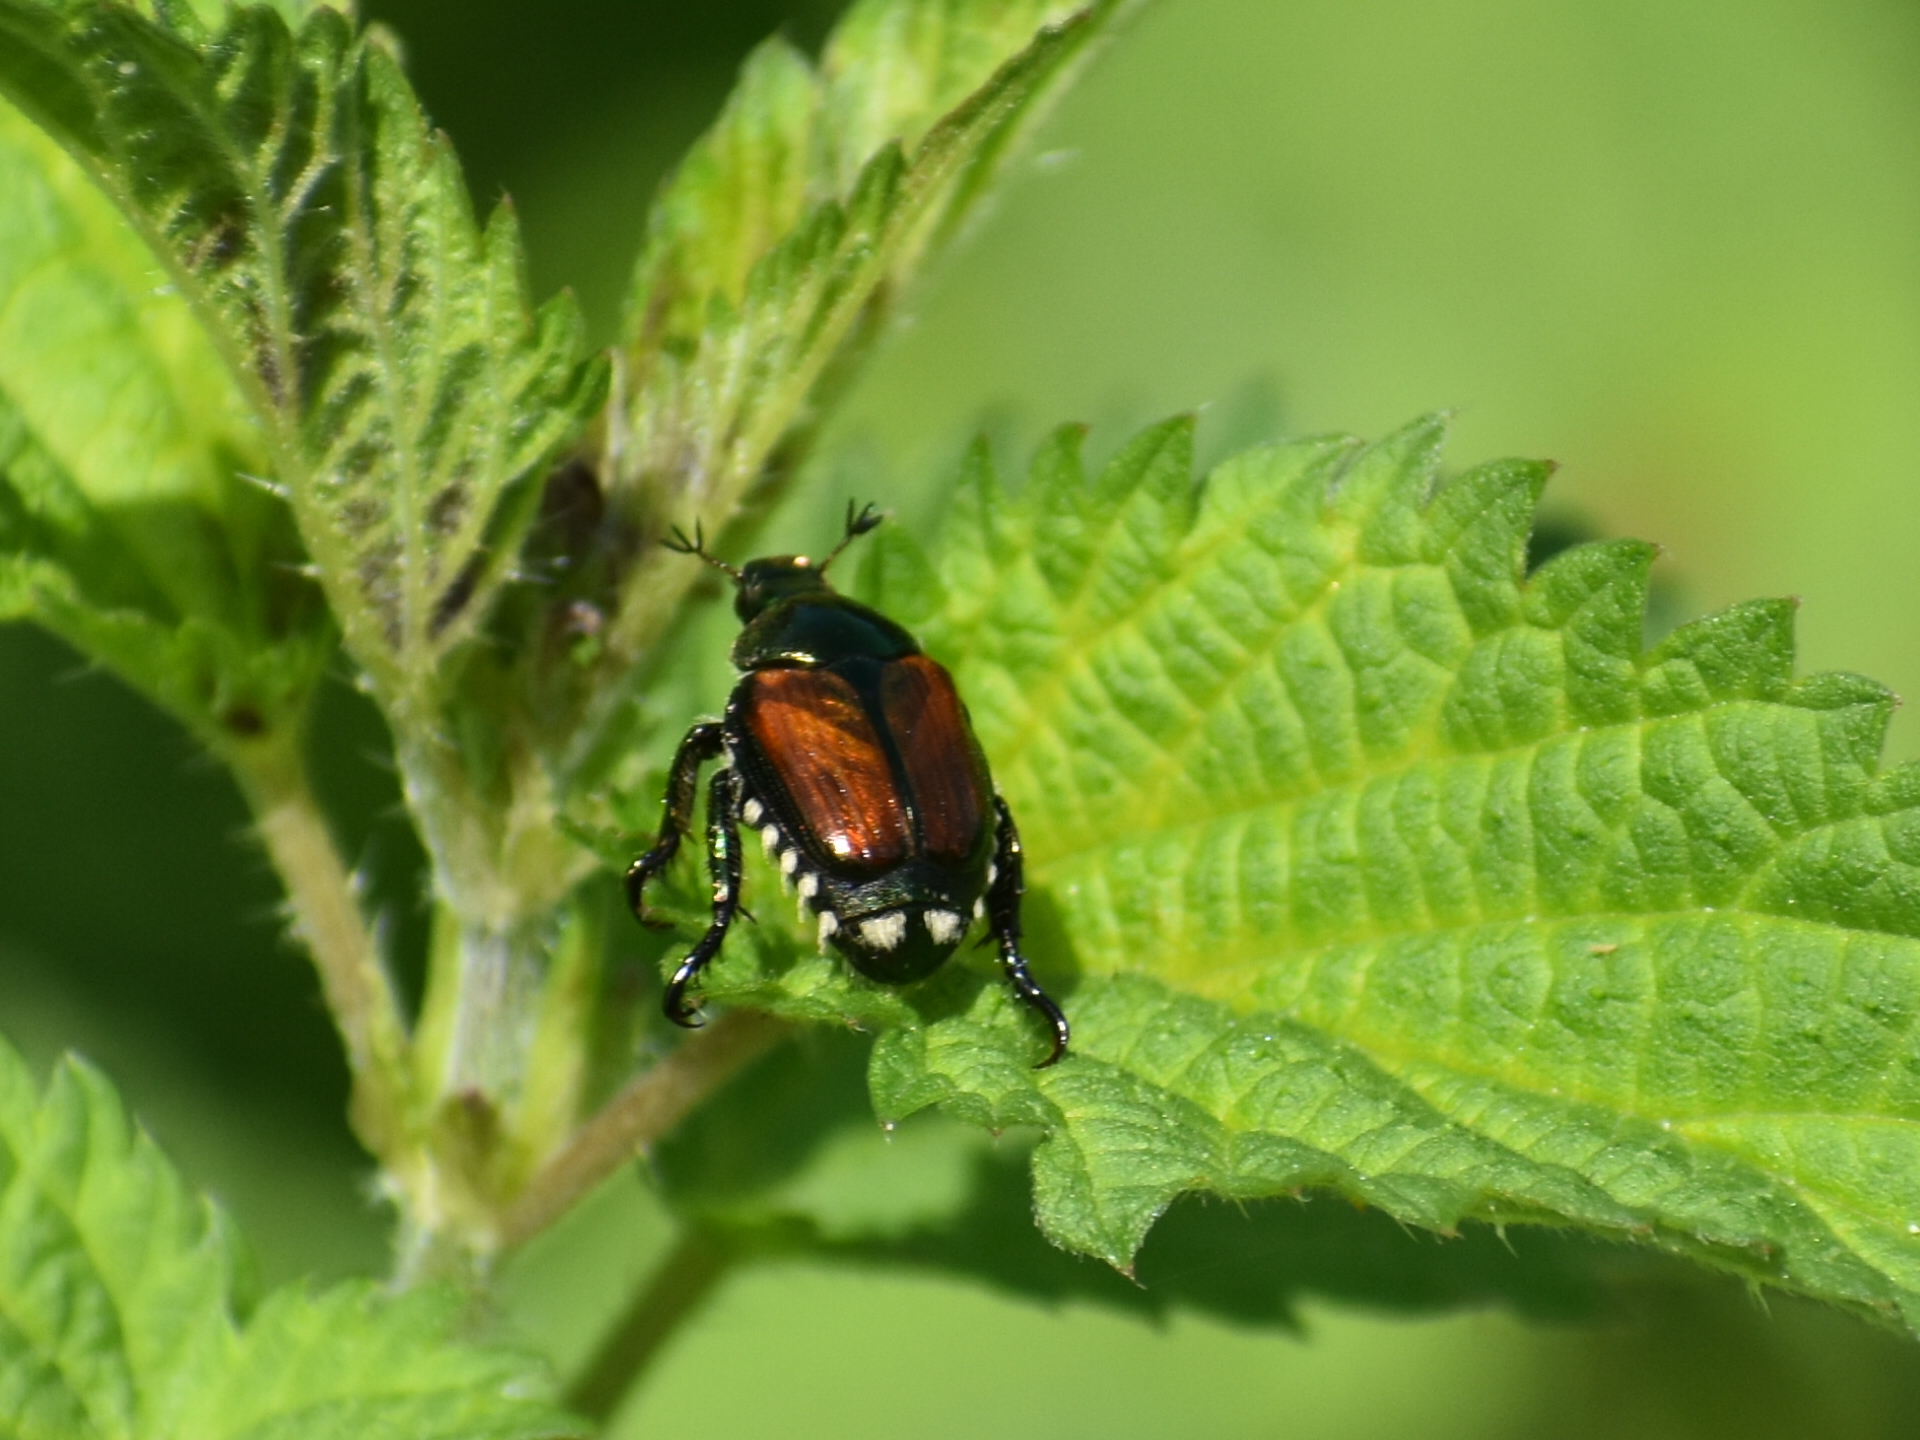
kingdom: Animalia
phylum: Arthropoda
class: Insecta
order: Coleoptera
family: Scarabaeidae
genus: Popillia
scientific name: Popillia japonica
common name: Japanese beetle
